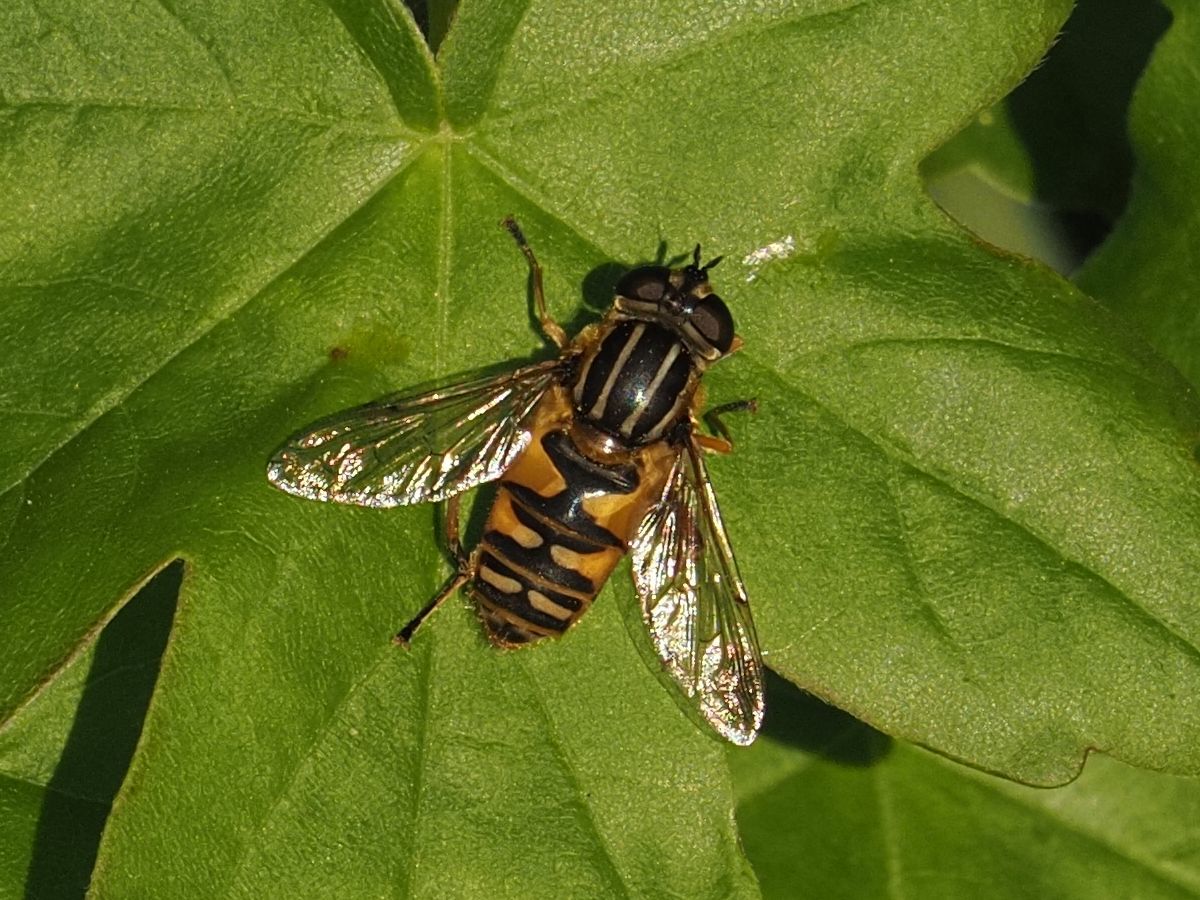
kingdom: Animalia
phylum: Arthropoda
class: Insecta
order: Diptera
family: Syrphidae
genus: Helophilus
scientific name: Helophilus pendulus
